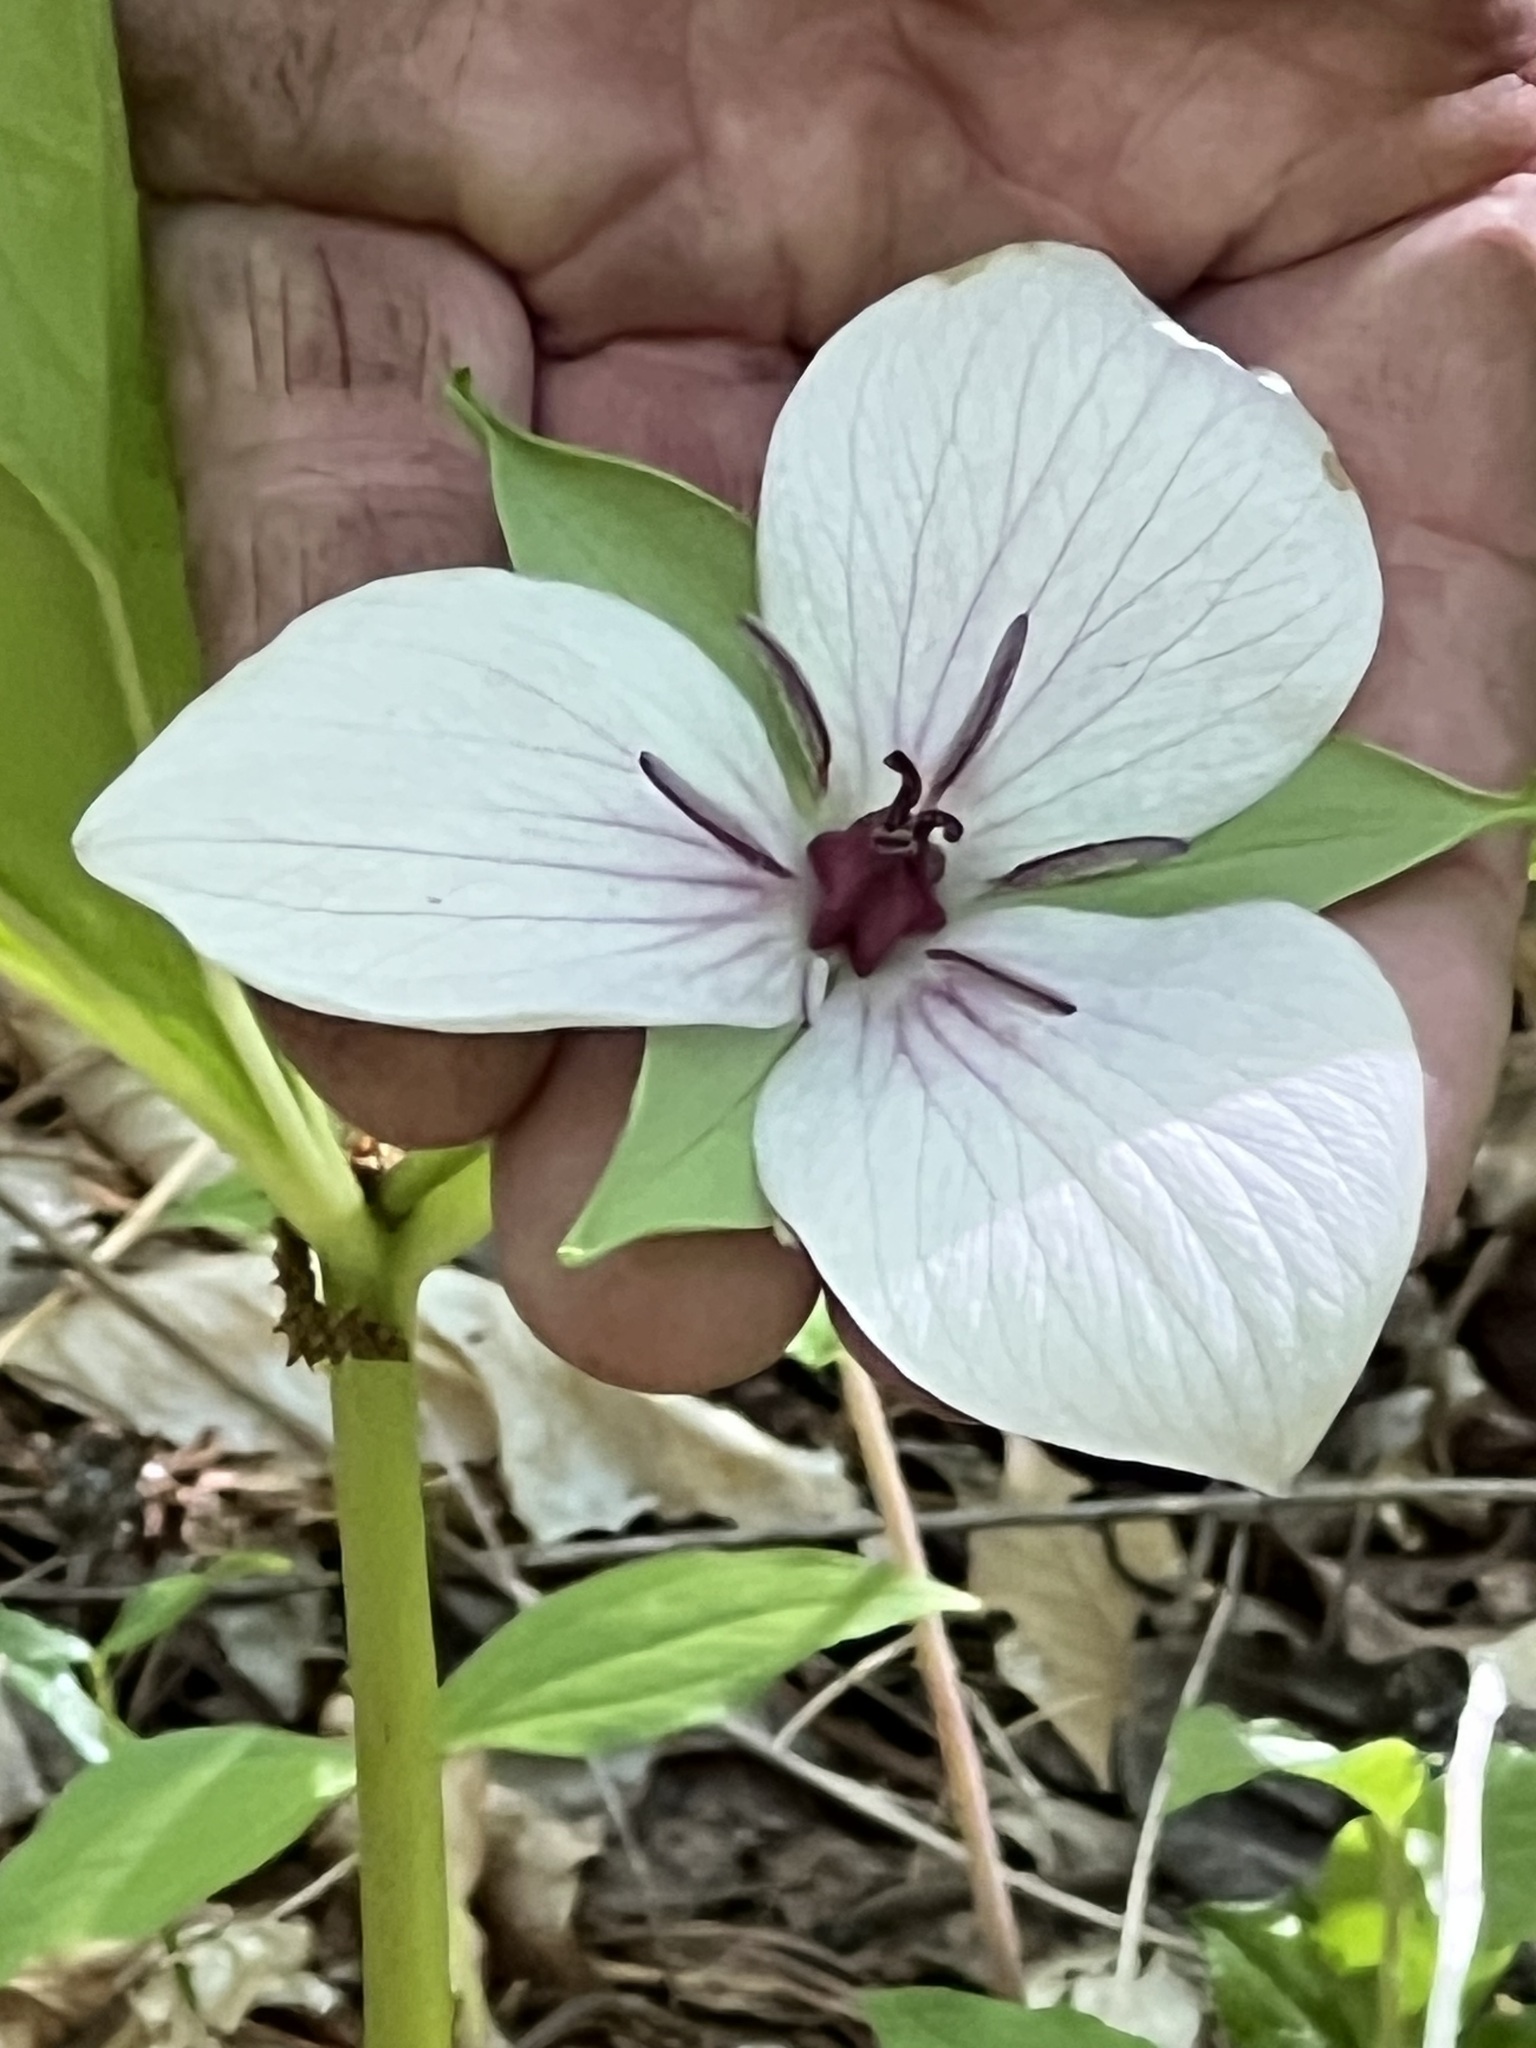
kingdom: Plantae
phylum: Tracheophyta
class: Liliopsida
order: Liliales
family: Melanthiaceae
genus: Trillium
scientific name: Trillium rugelii
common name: Ill-scented trillium
